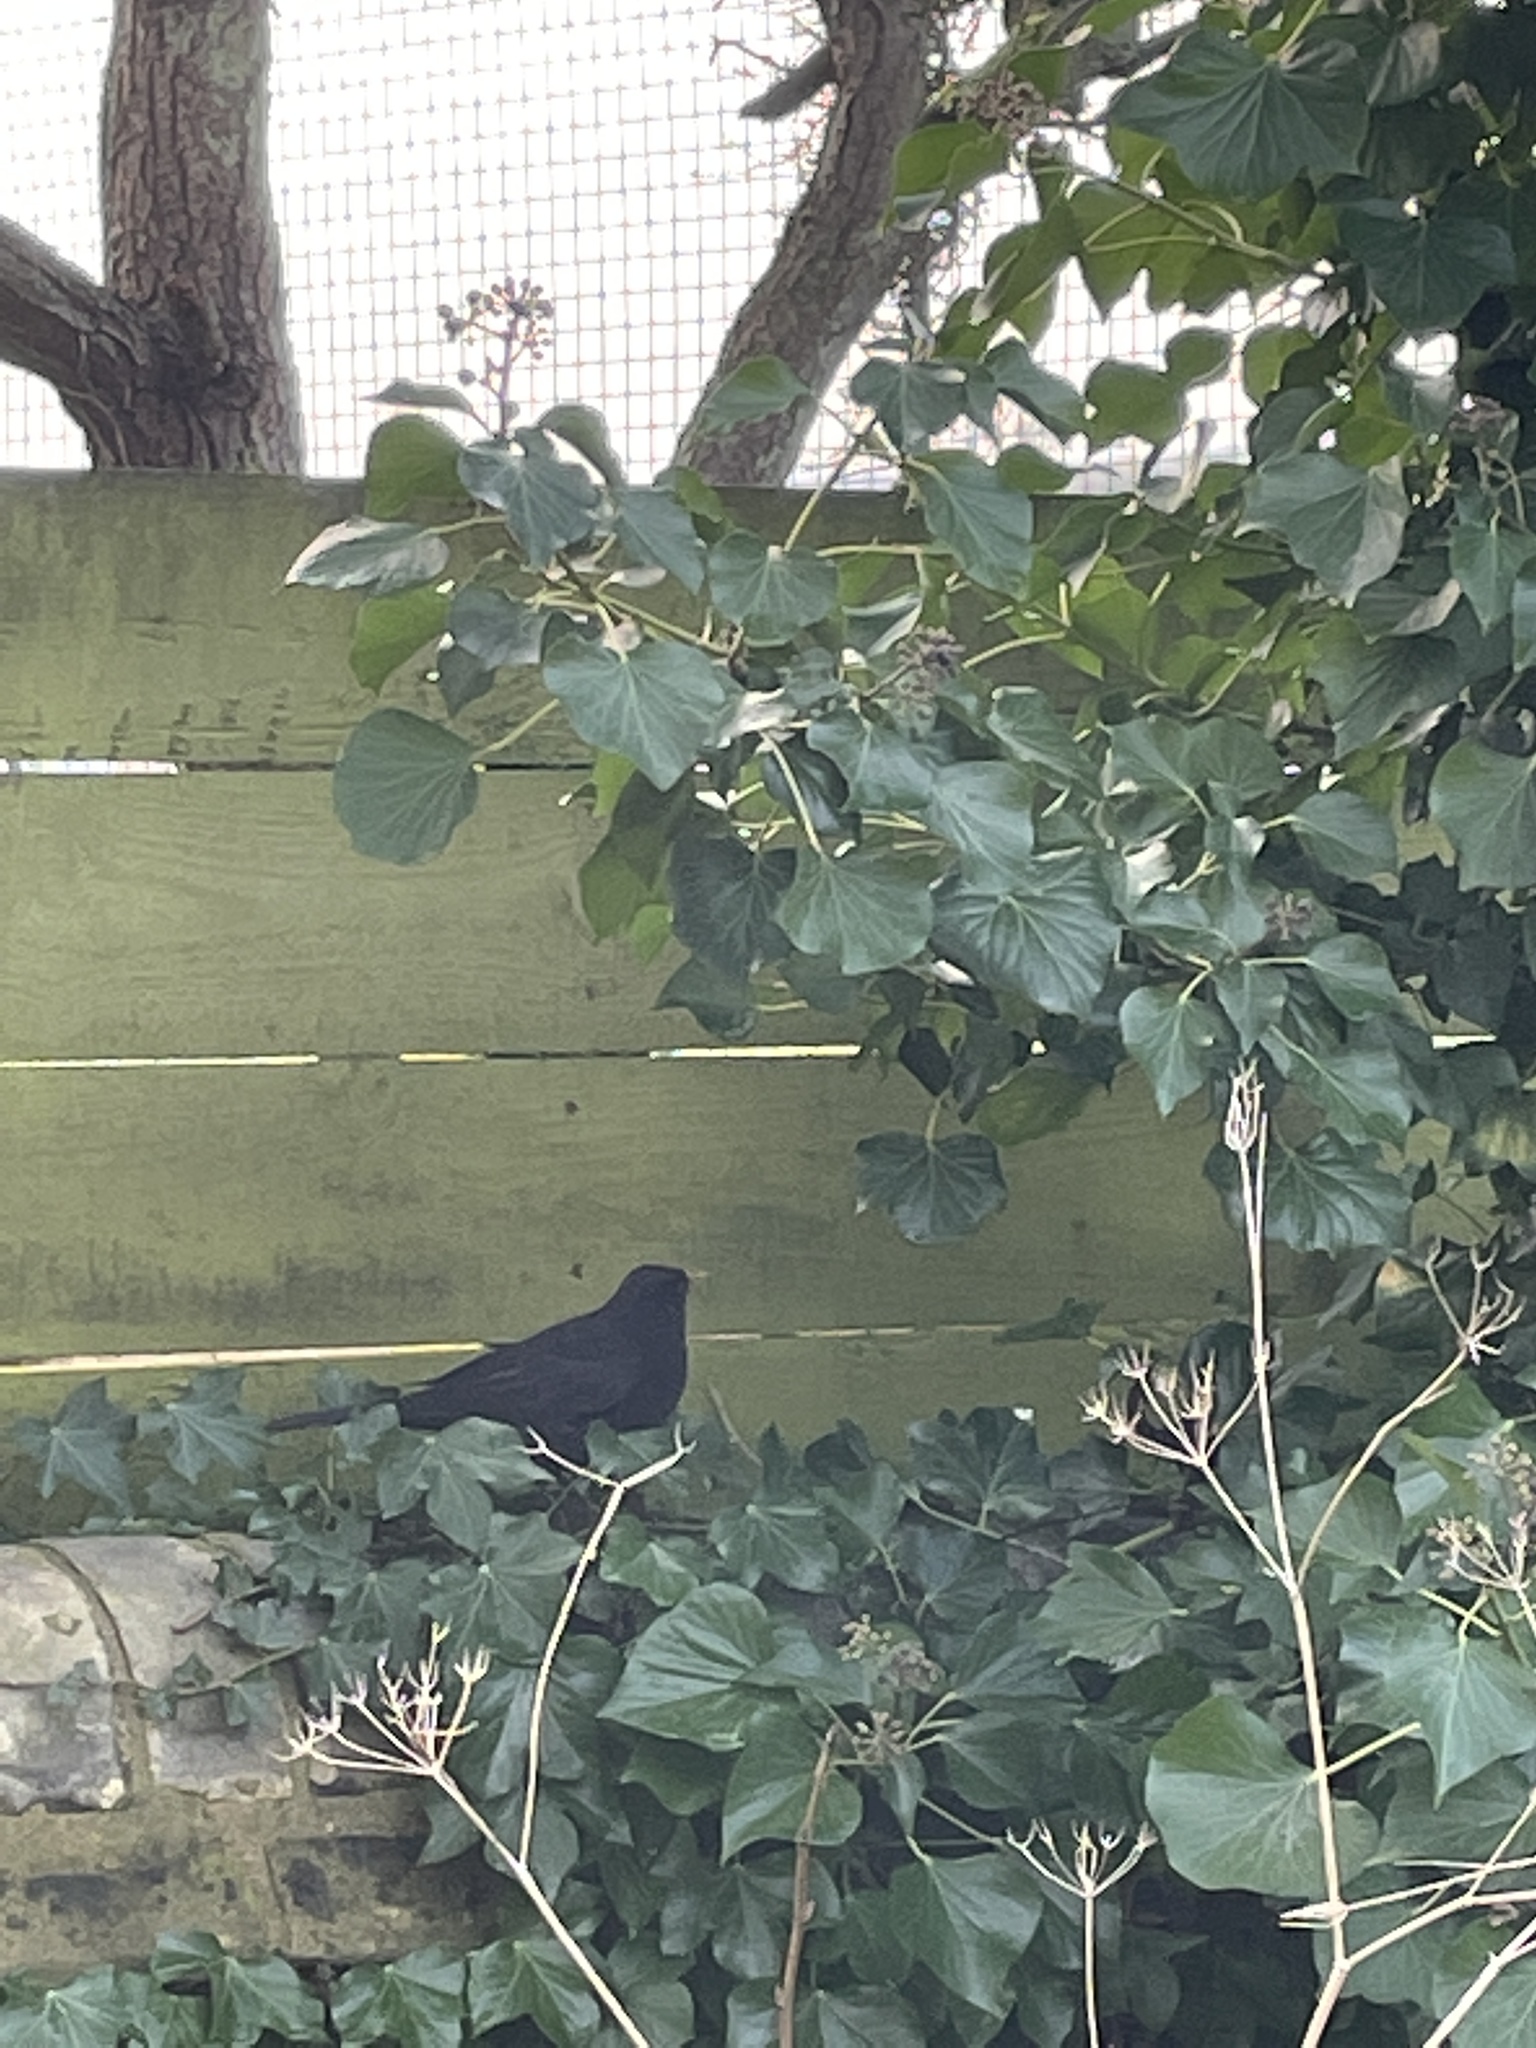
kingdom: Animalia
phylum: Chordata
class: Aves
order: Passeriformes
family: Turdidae
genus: Turdus
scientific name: Turdus merula
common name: Common blackbird
